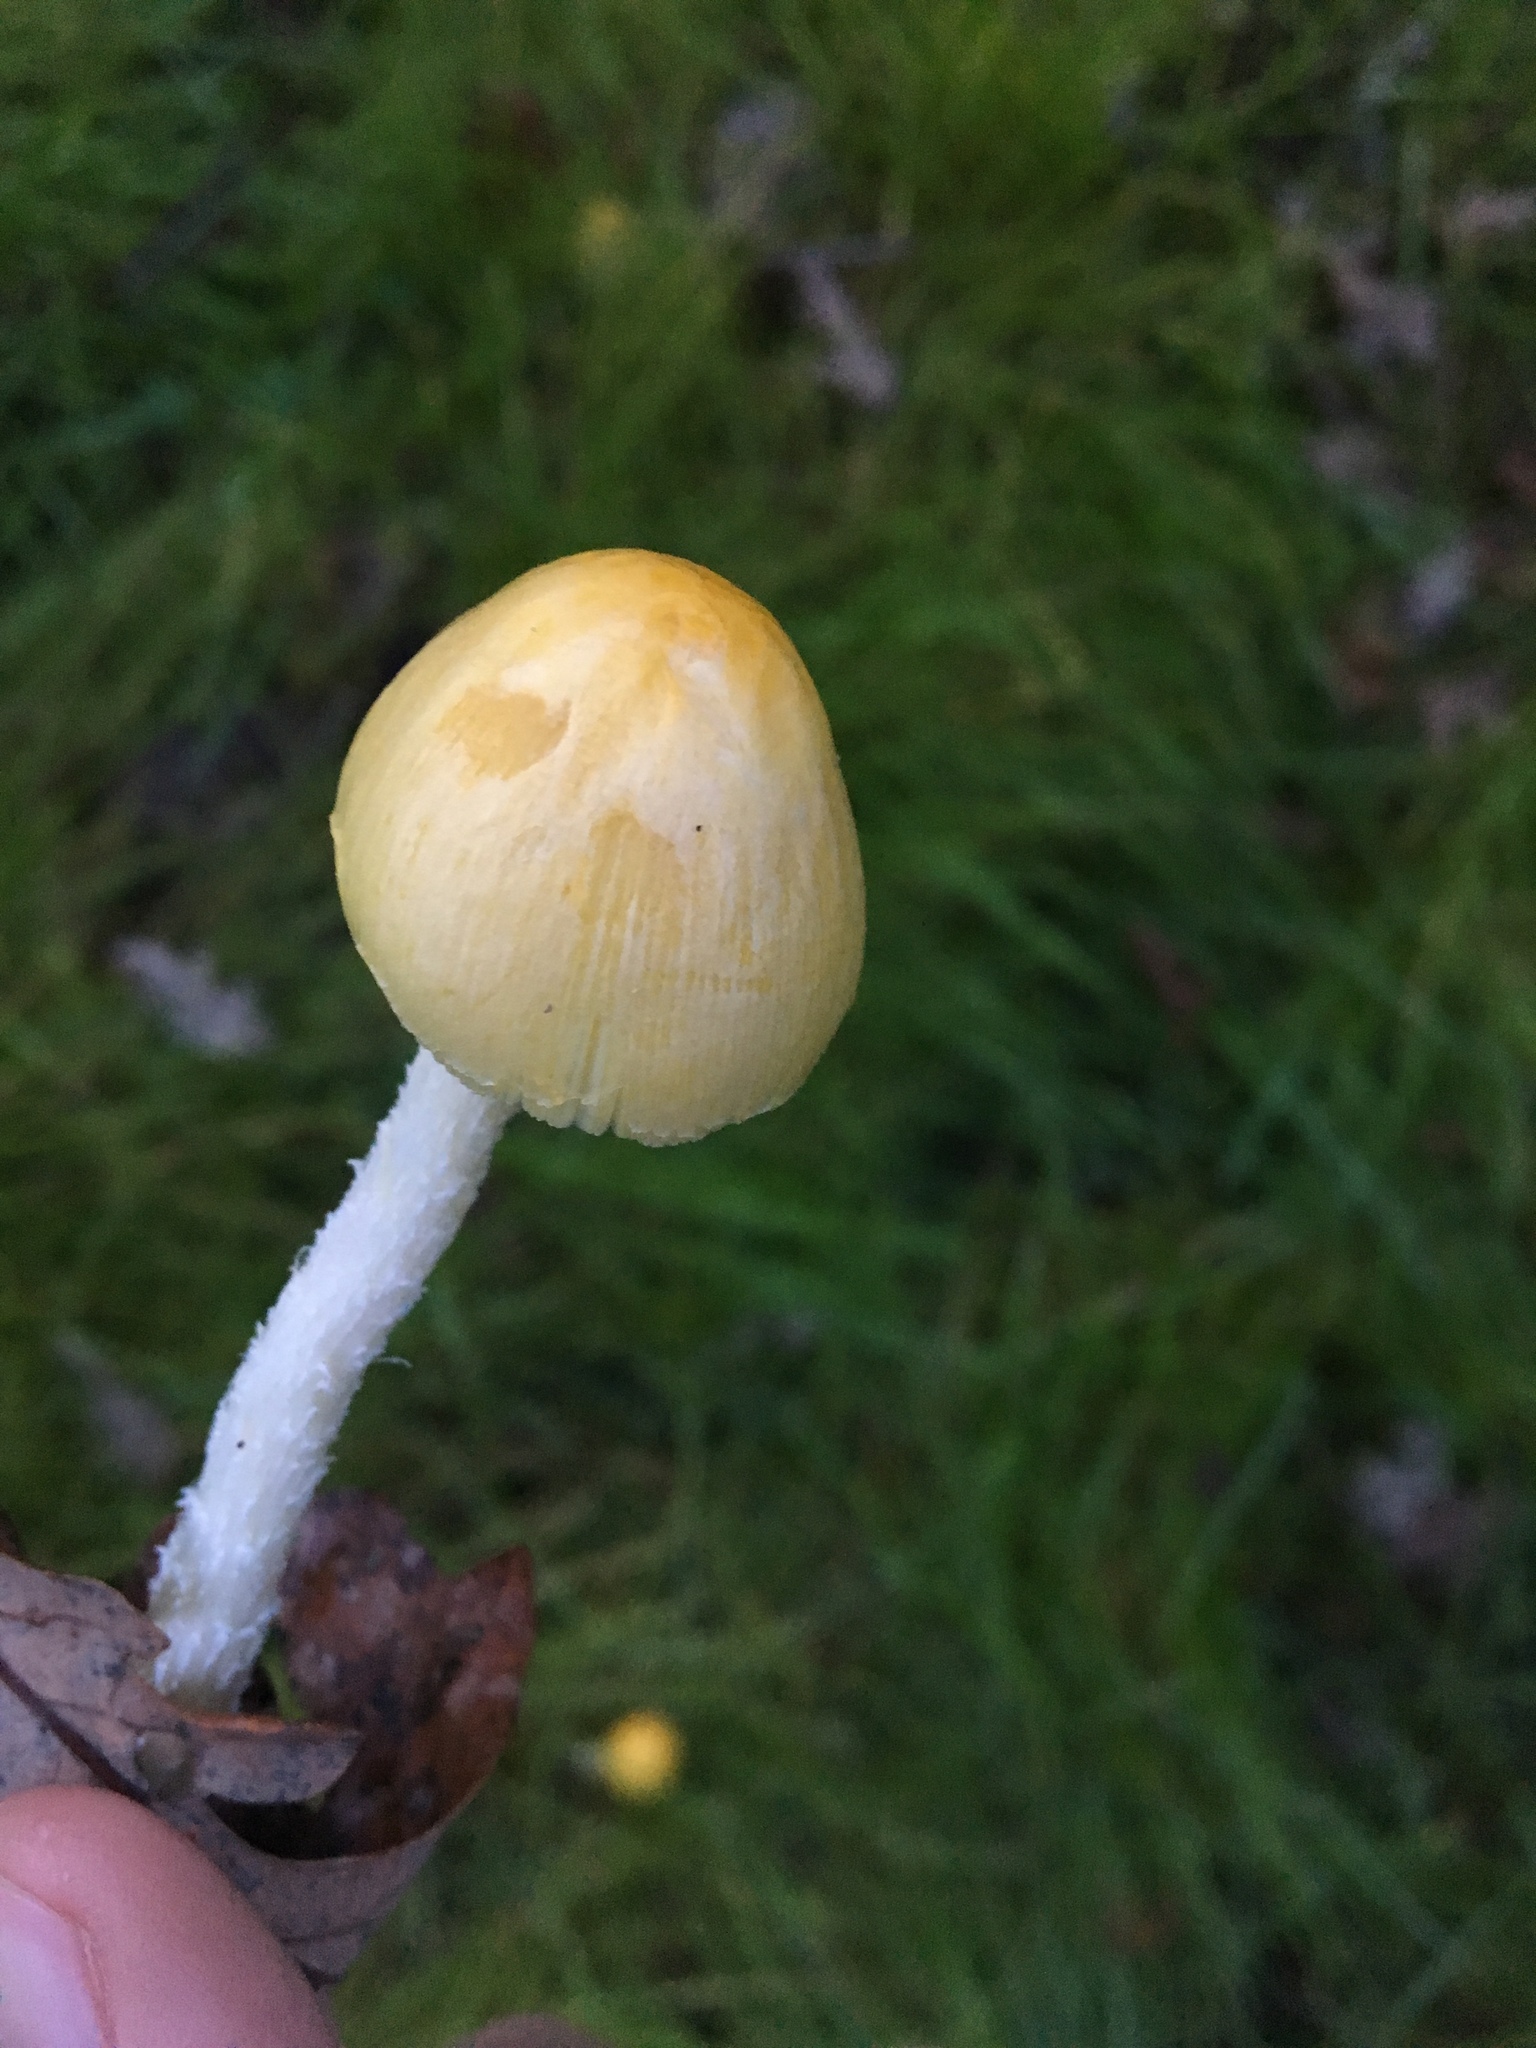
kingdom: Fungi
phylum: Basidiomycota
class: Agaricomycetes
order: Agaricales
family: Bolbitiaceae
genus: Bolbitius
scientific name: Bolbitius titubans
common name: Yellow fieldcap
